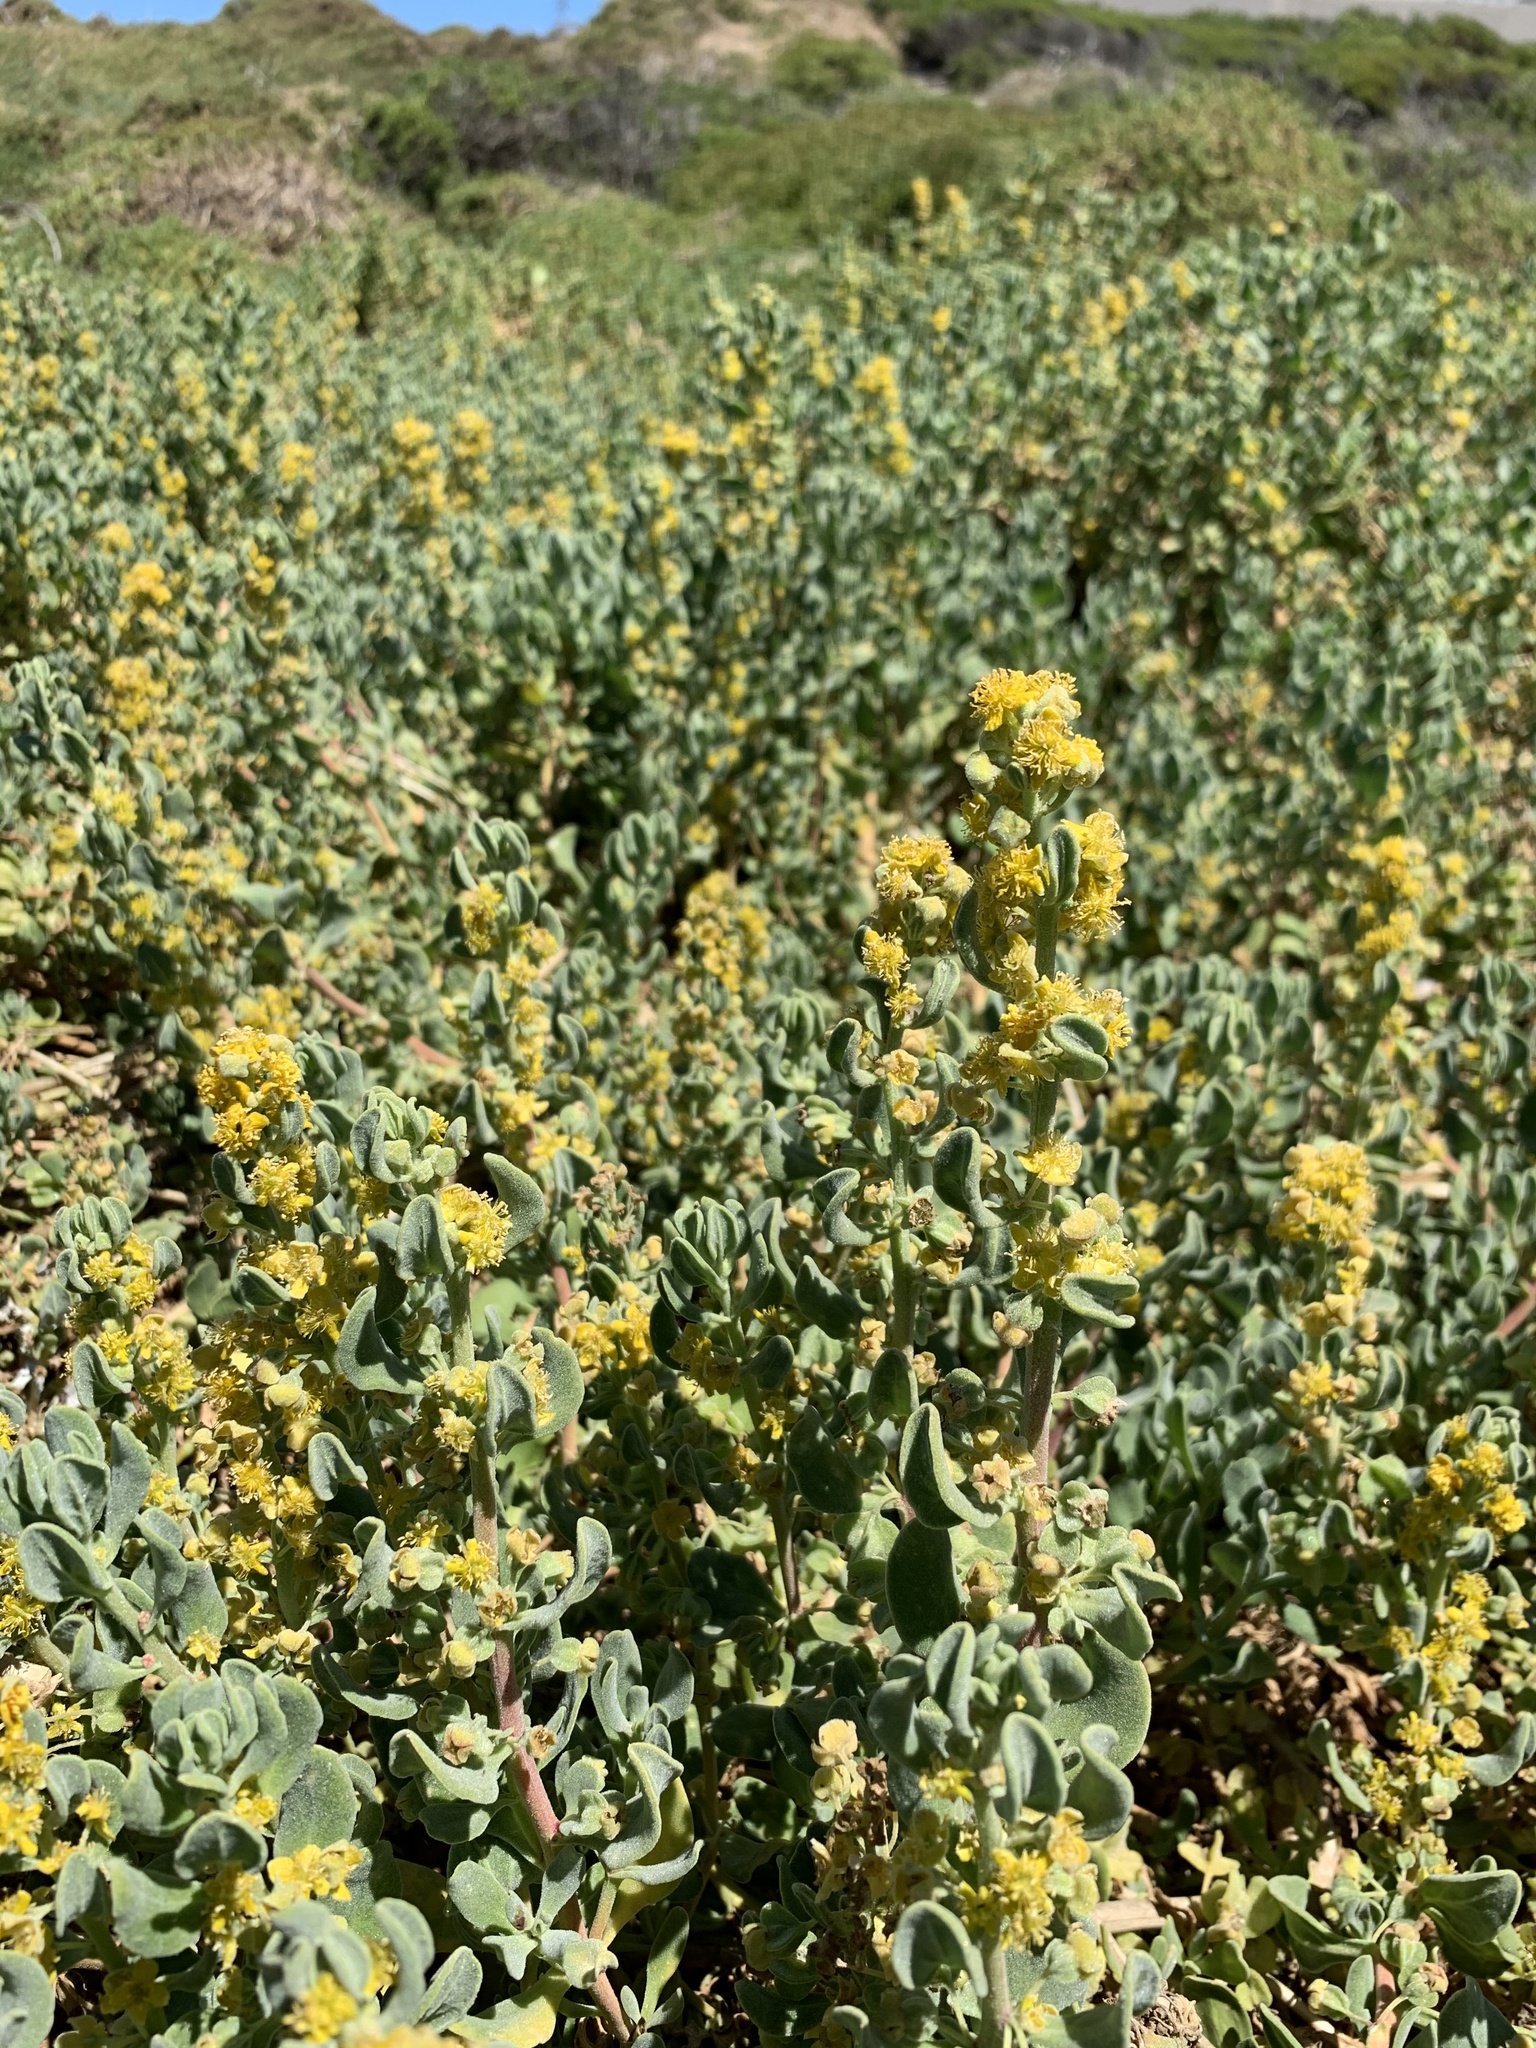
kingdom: Plantae
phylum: Tracheophyta
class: Magnoliopsida
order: Caryophyllales
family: Aizoaceae
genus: Tetragonia
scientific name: Tetragonia decumbens
